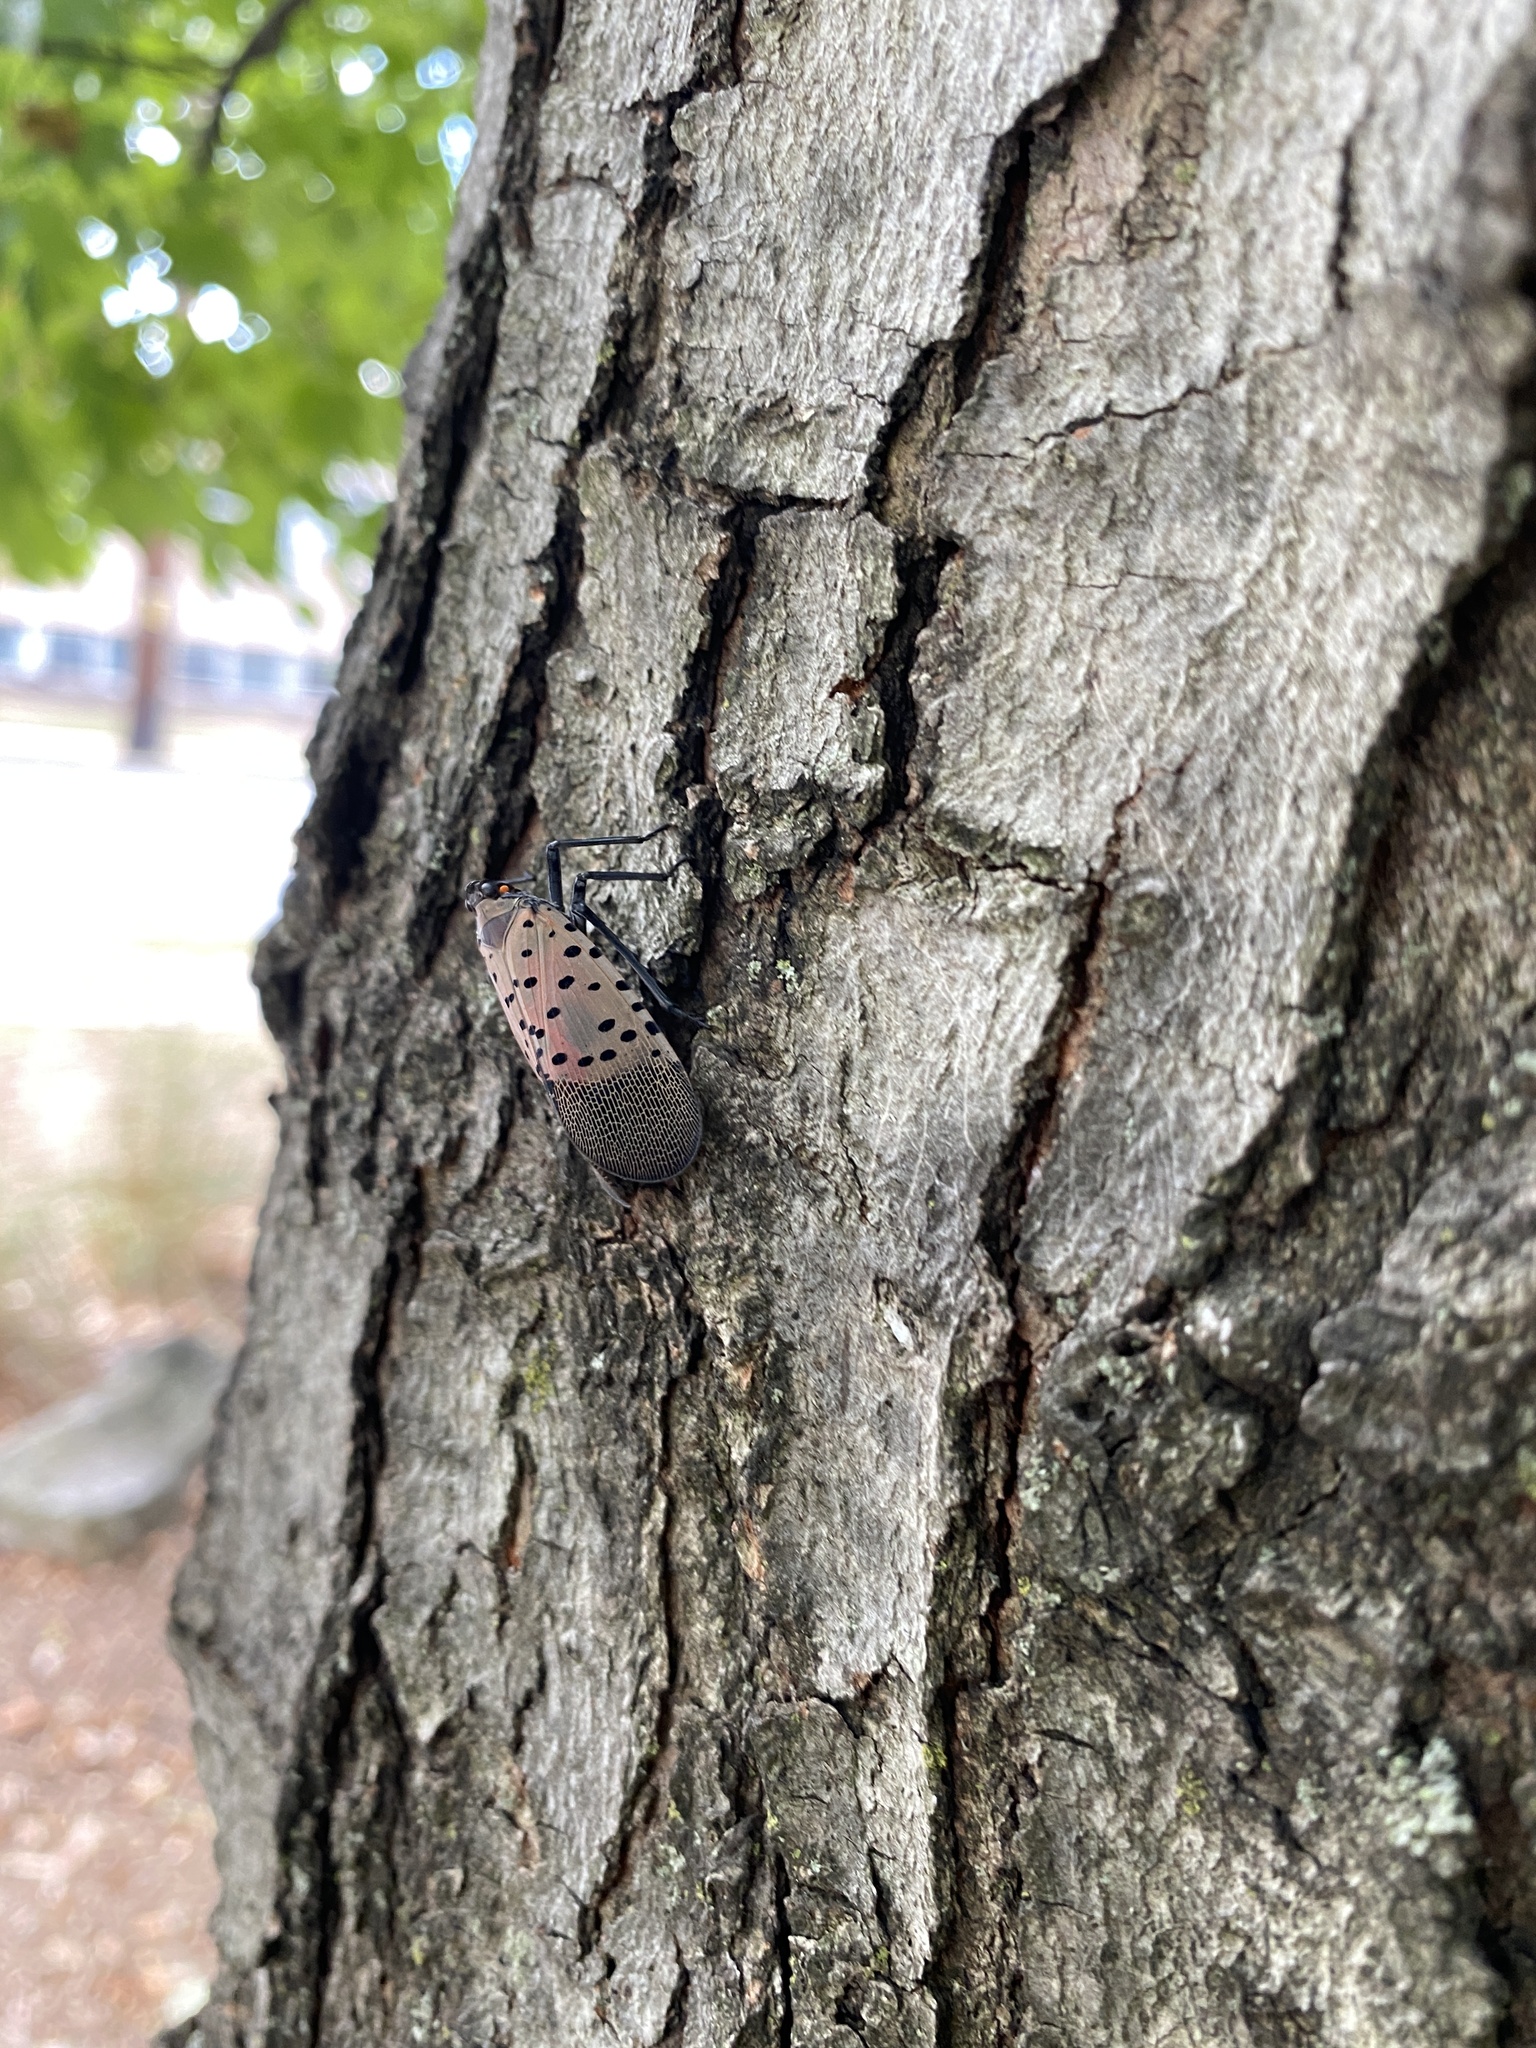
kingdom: Animalia
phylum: Arthropoda
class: Insecta
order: Hemiptera
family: Fulgoridae
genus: Lycorma
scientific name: Lycorma delicatula
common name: Spotted lanternfly
